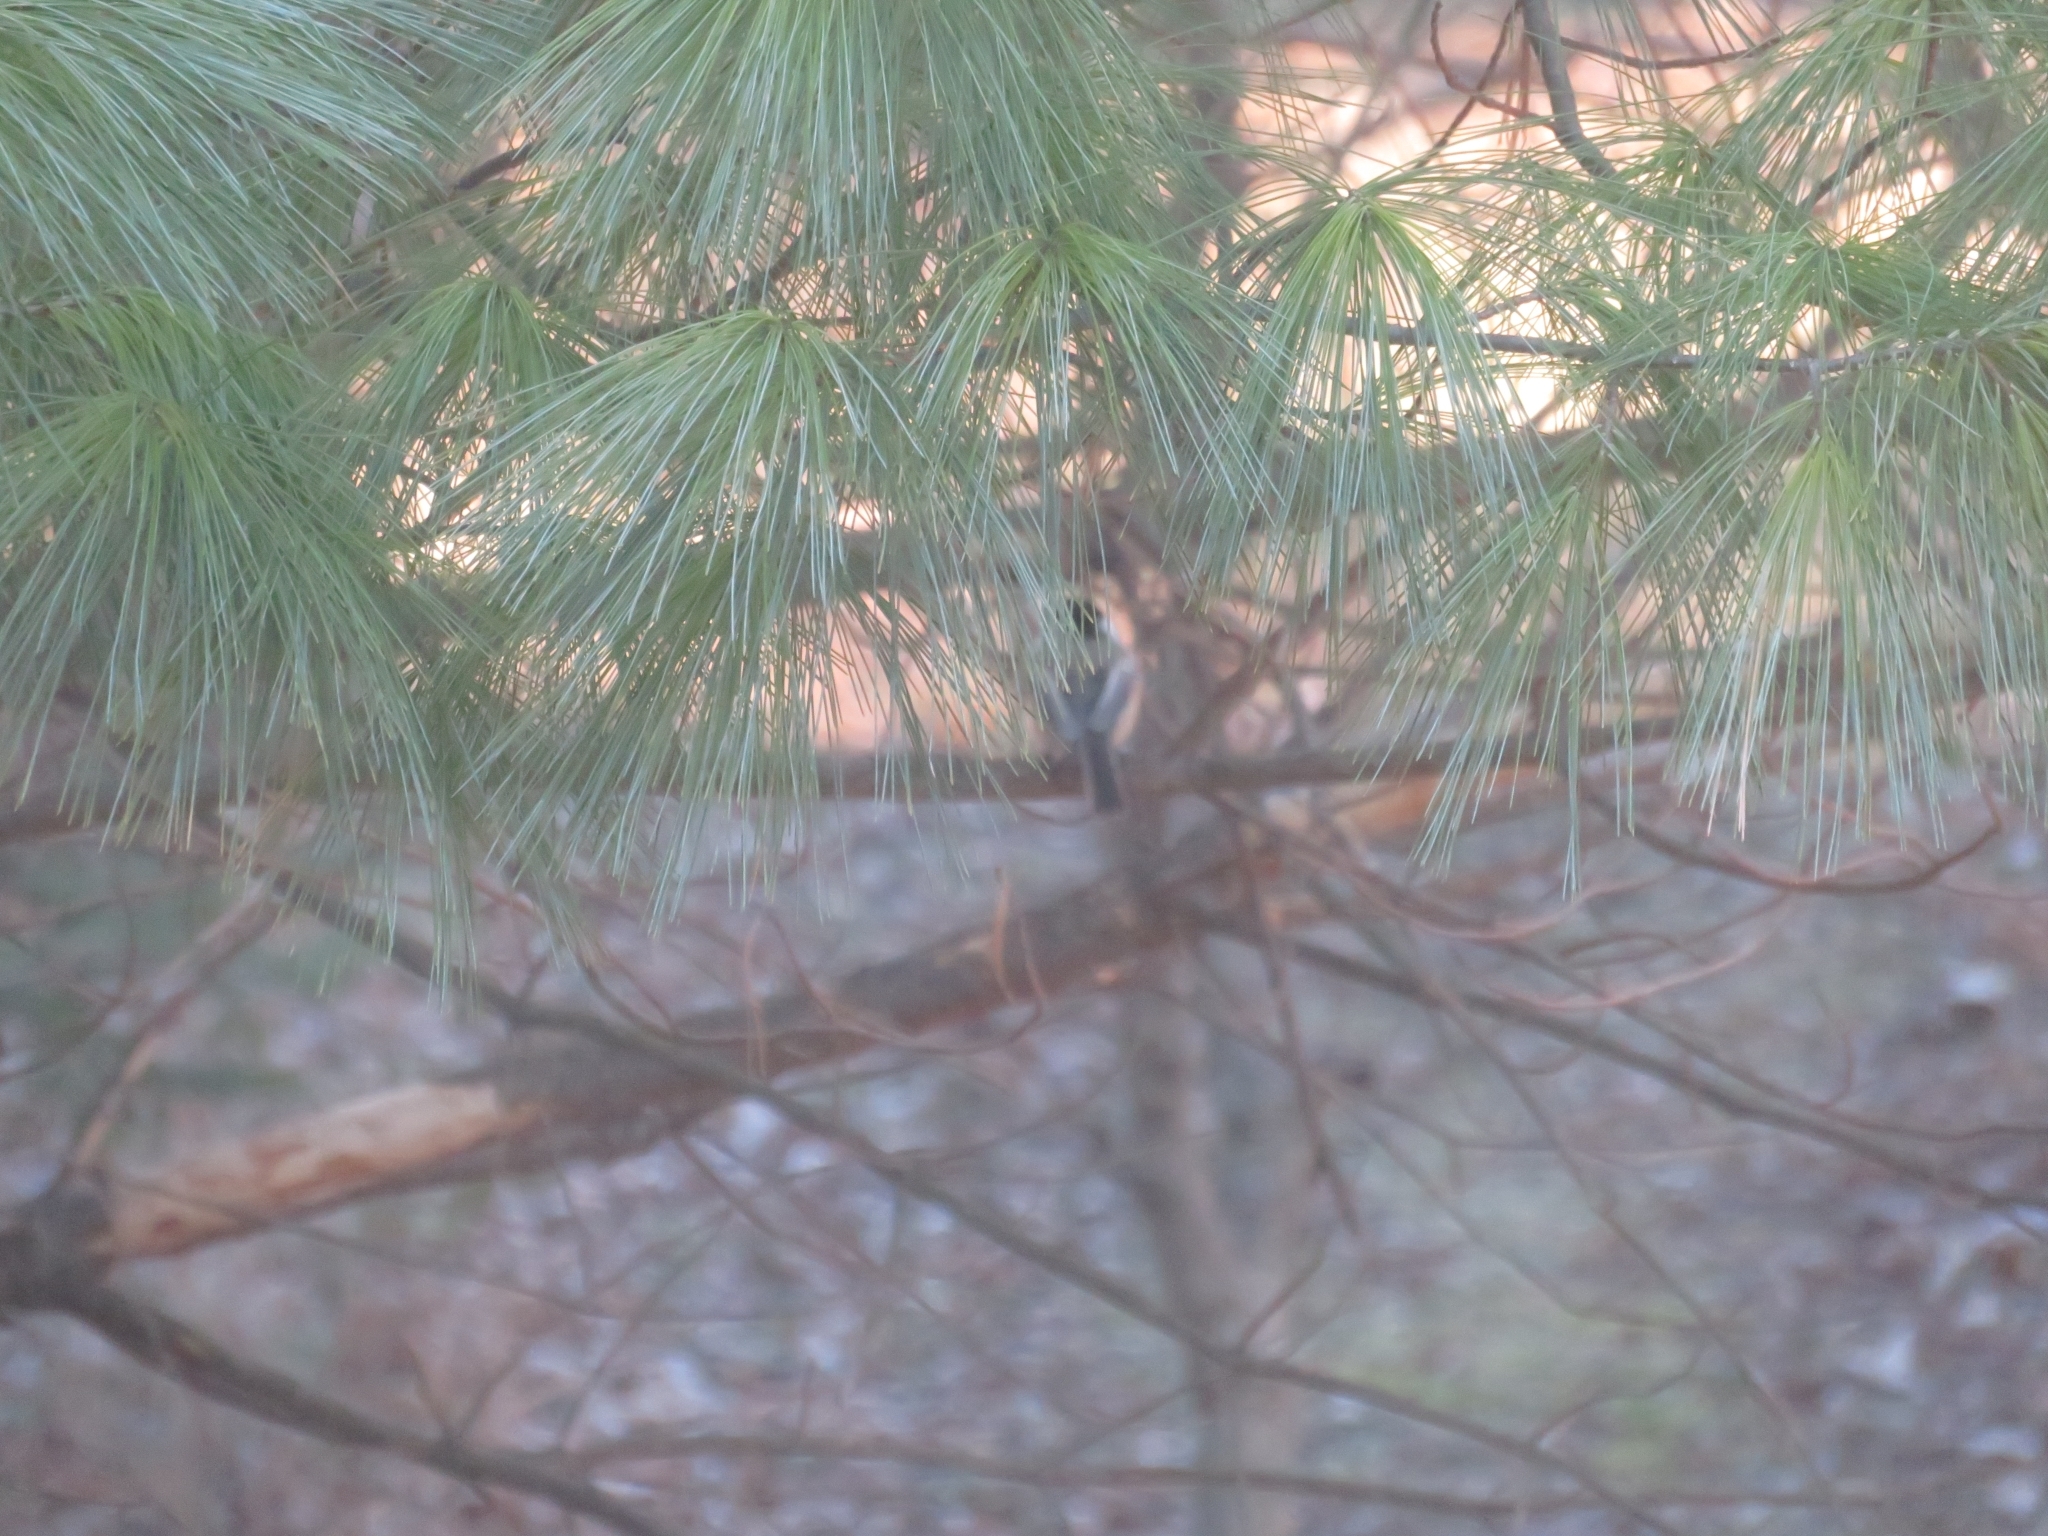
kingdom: Animalia
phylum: Chordata
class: Aves
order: Passeriformes
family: Paridae
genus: Poecile
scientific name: Poecile atricapillus
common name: Black-capped chickadee
